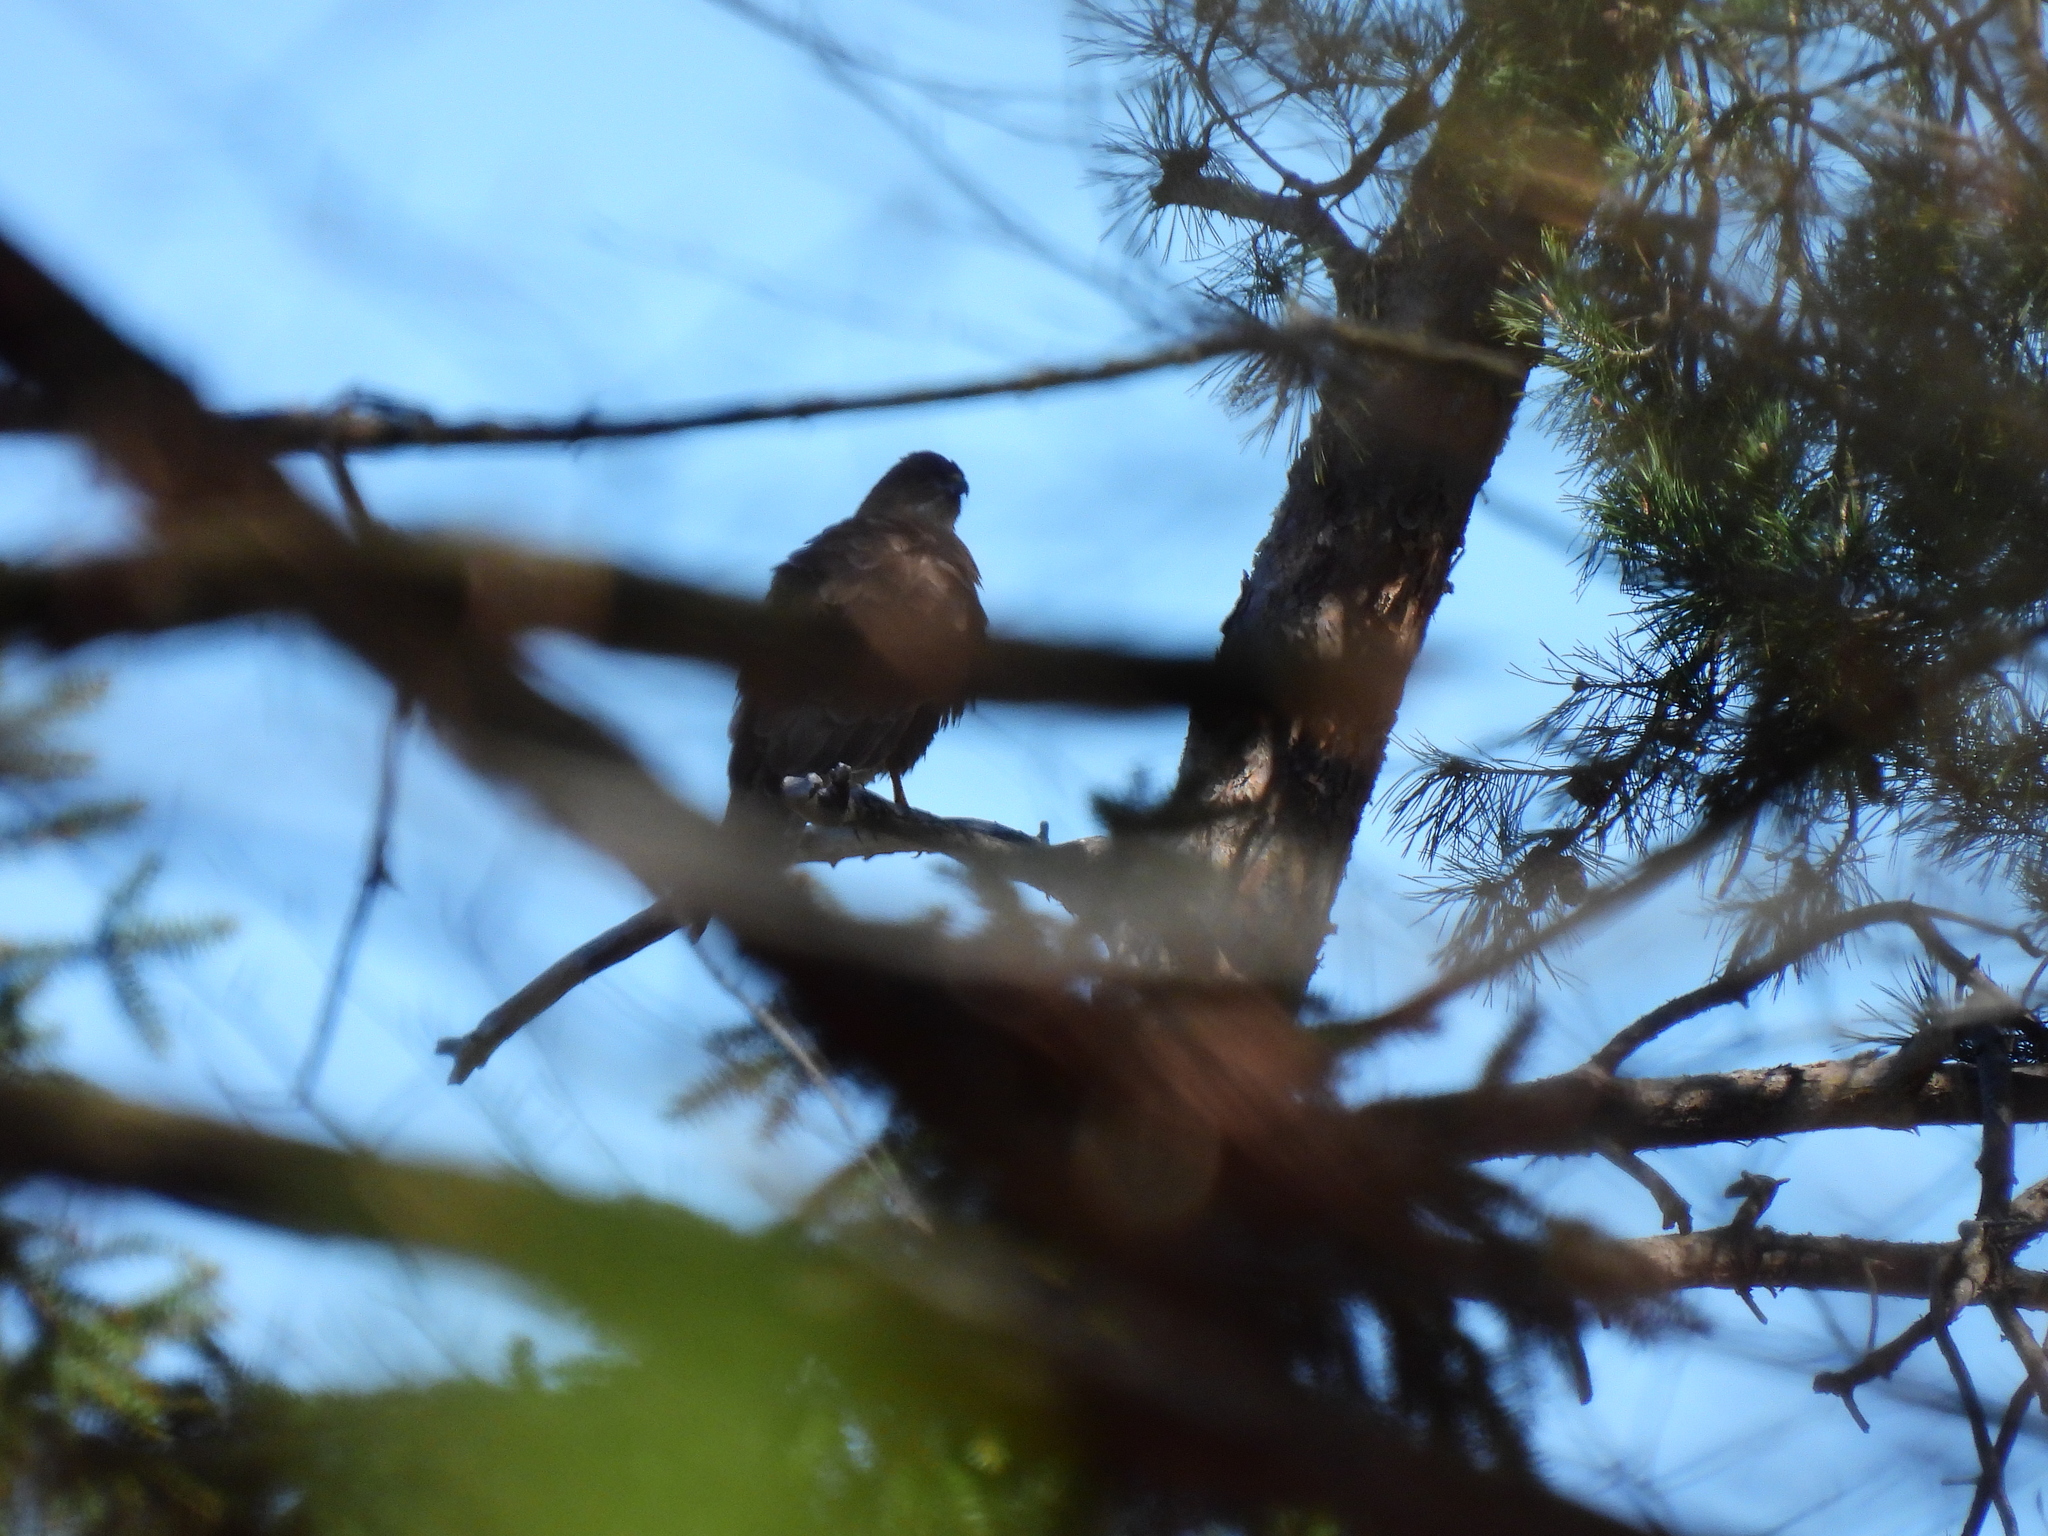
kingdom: Animalia
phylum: Chordata
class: Aves
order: Accipitriformes
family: Accipitridae
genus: Buteo
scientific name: Buteo buteo
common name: Common buzzard
